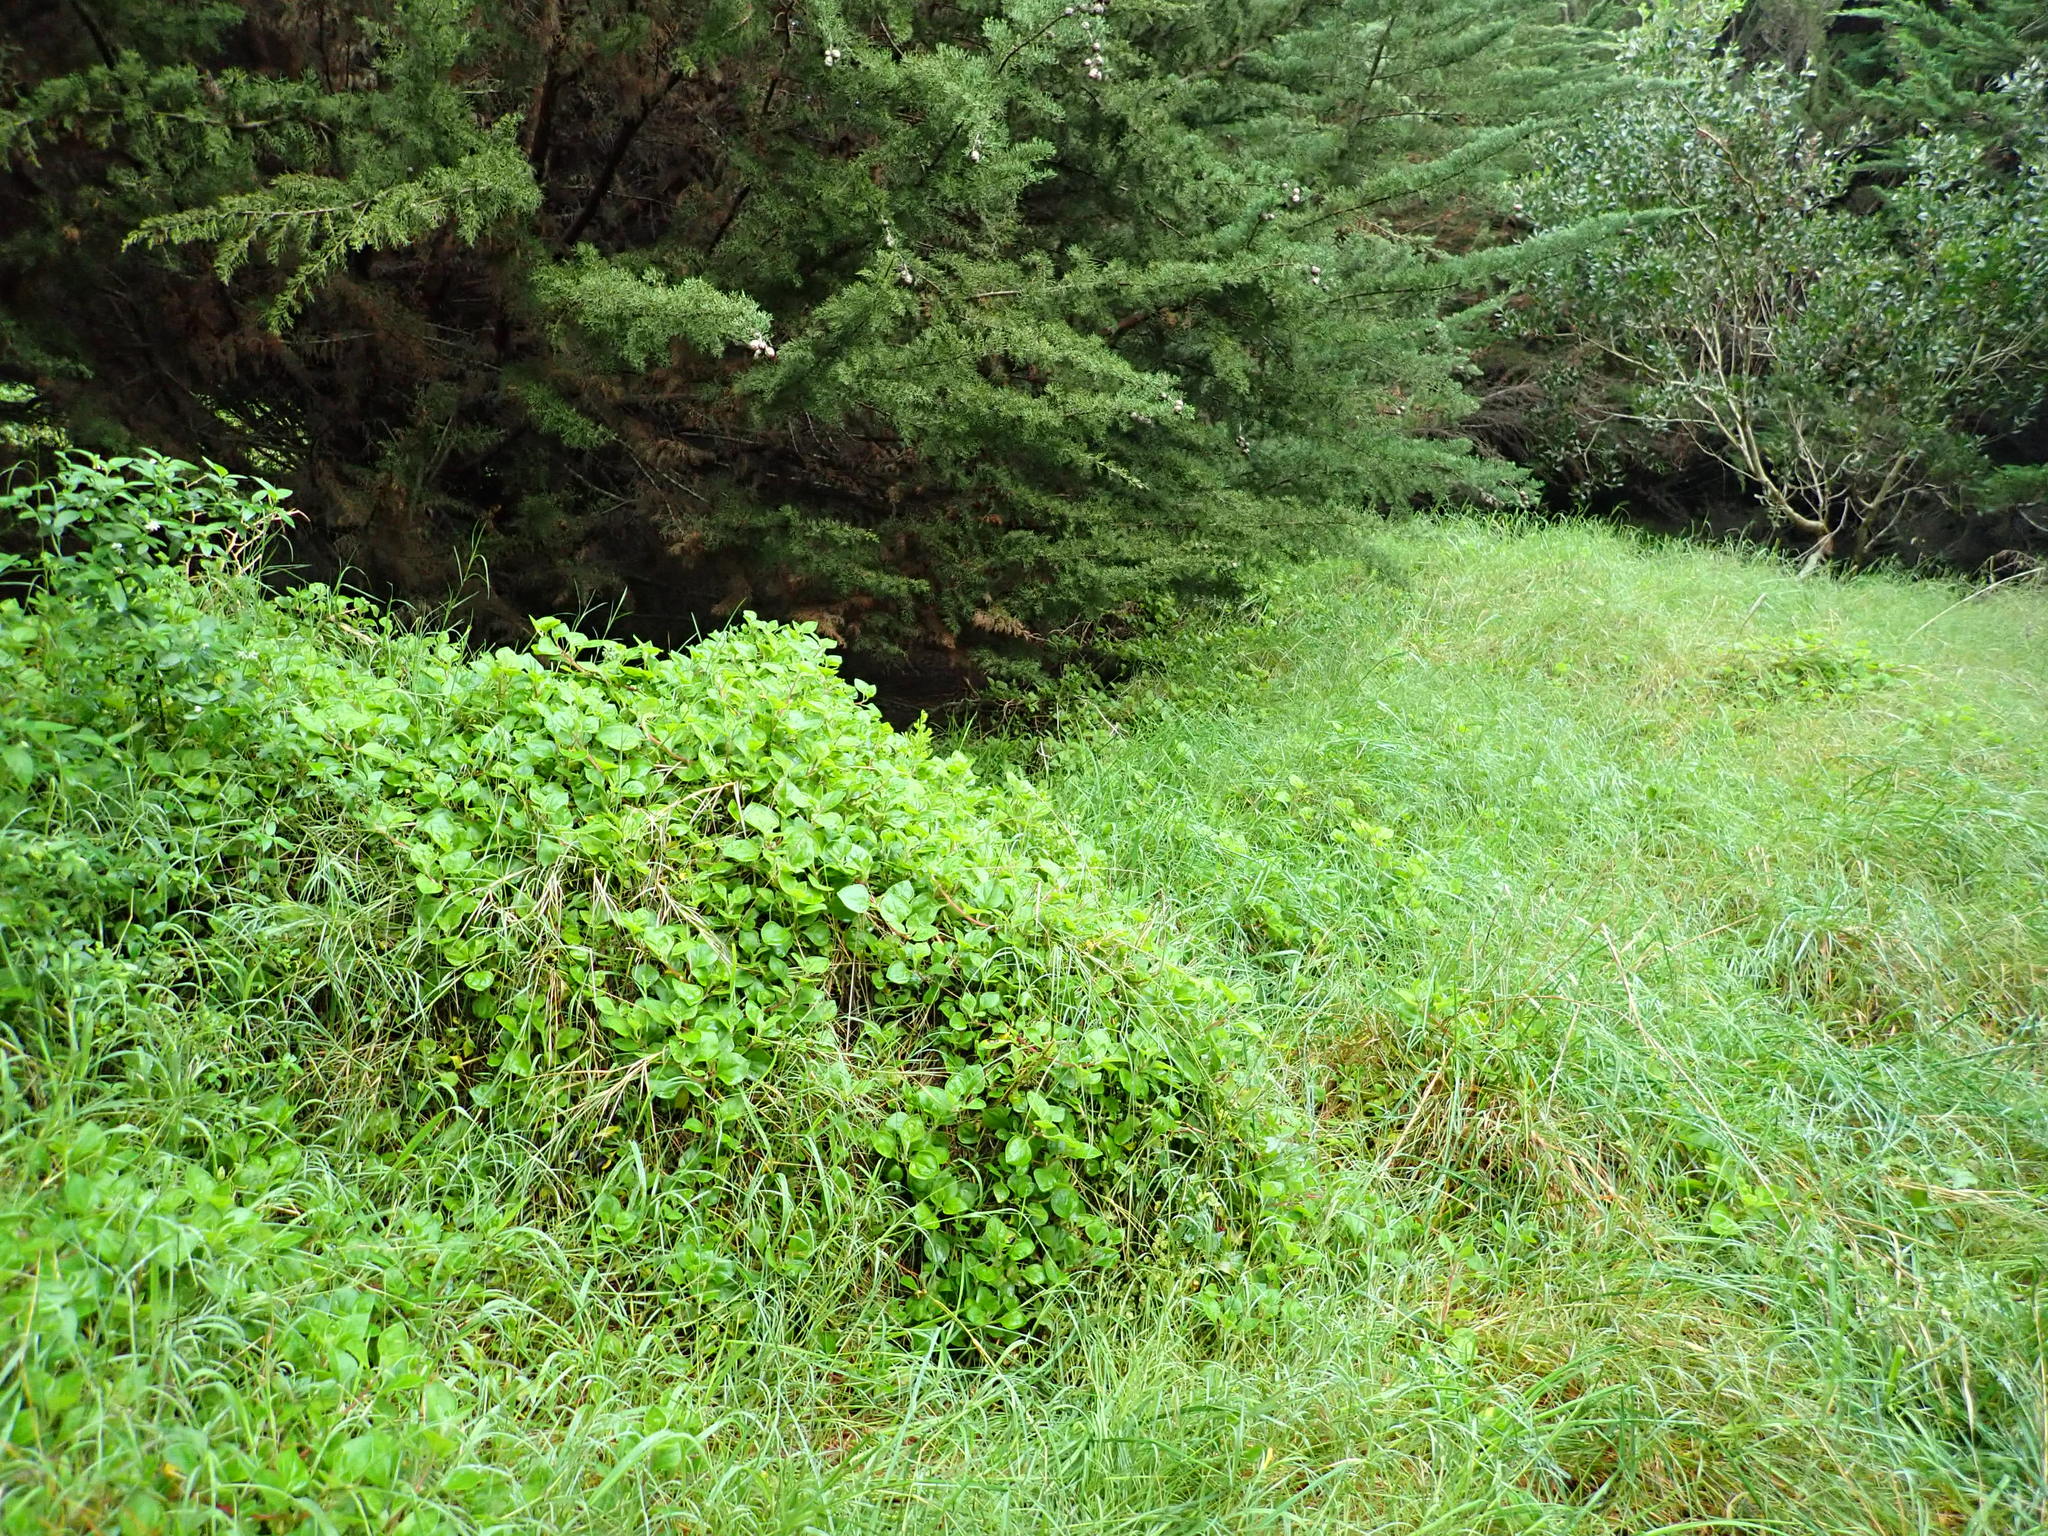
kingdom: Plantae
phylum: Tracheophyta
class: Magnoliopsida
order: Caryophyllales
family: Aizoaceae
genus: Tetragonia
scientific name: Tetragonia implexicoma
